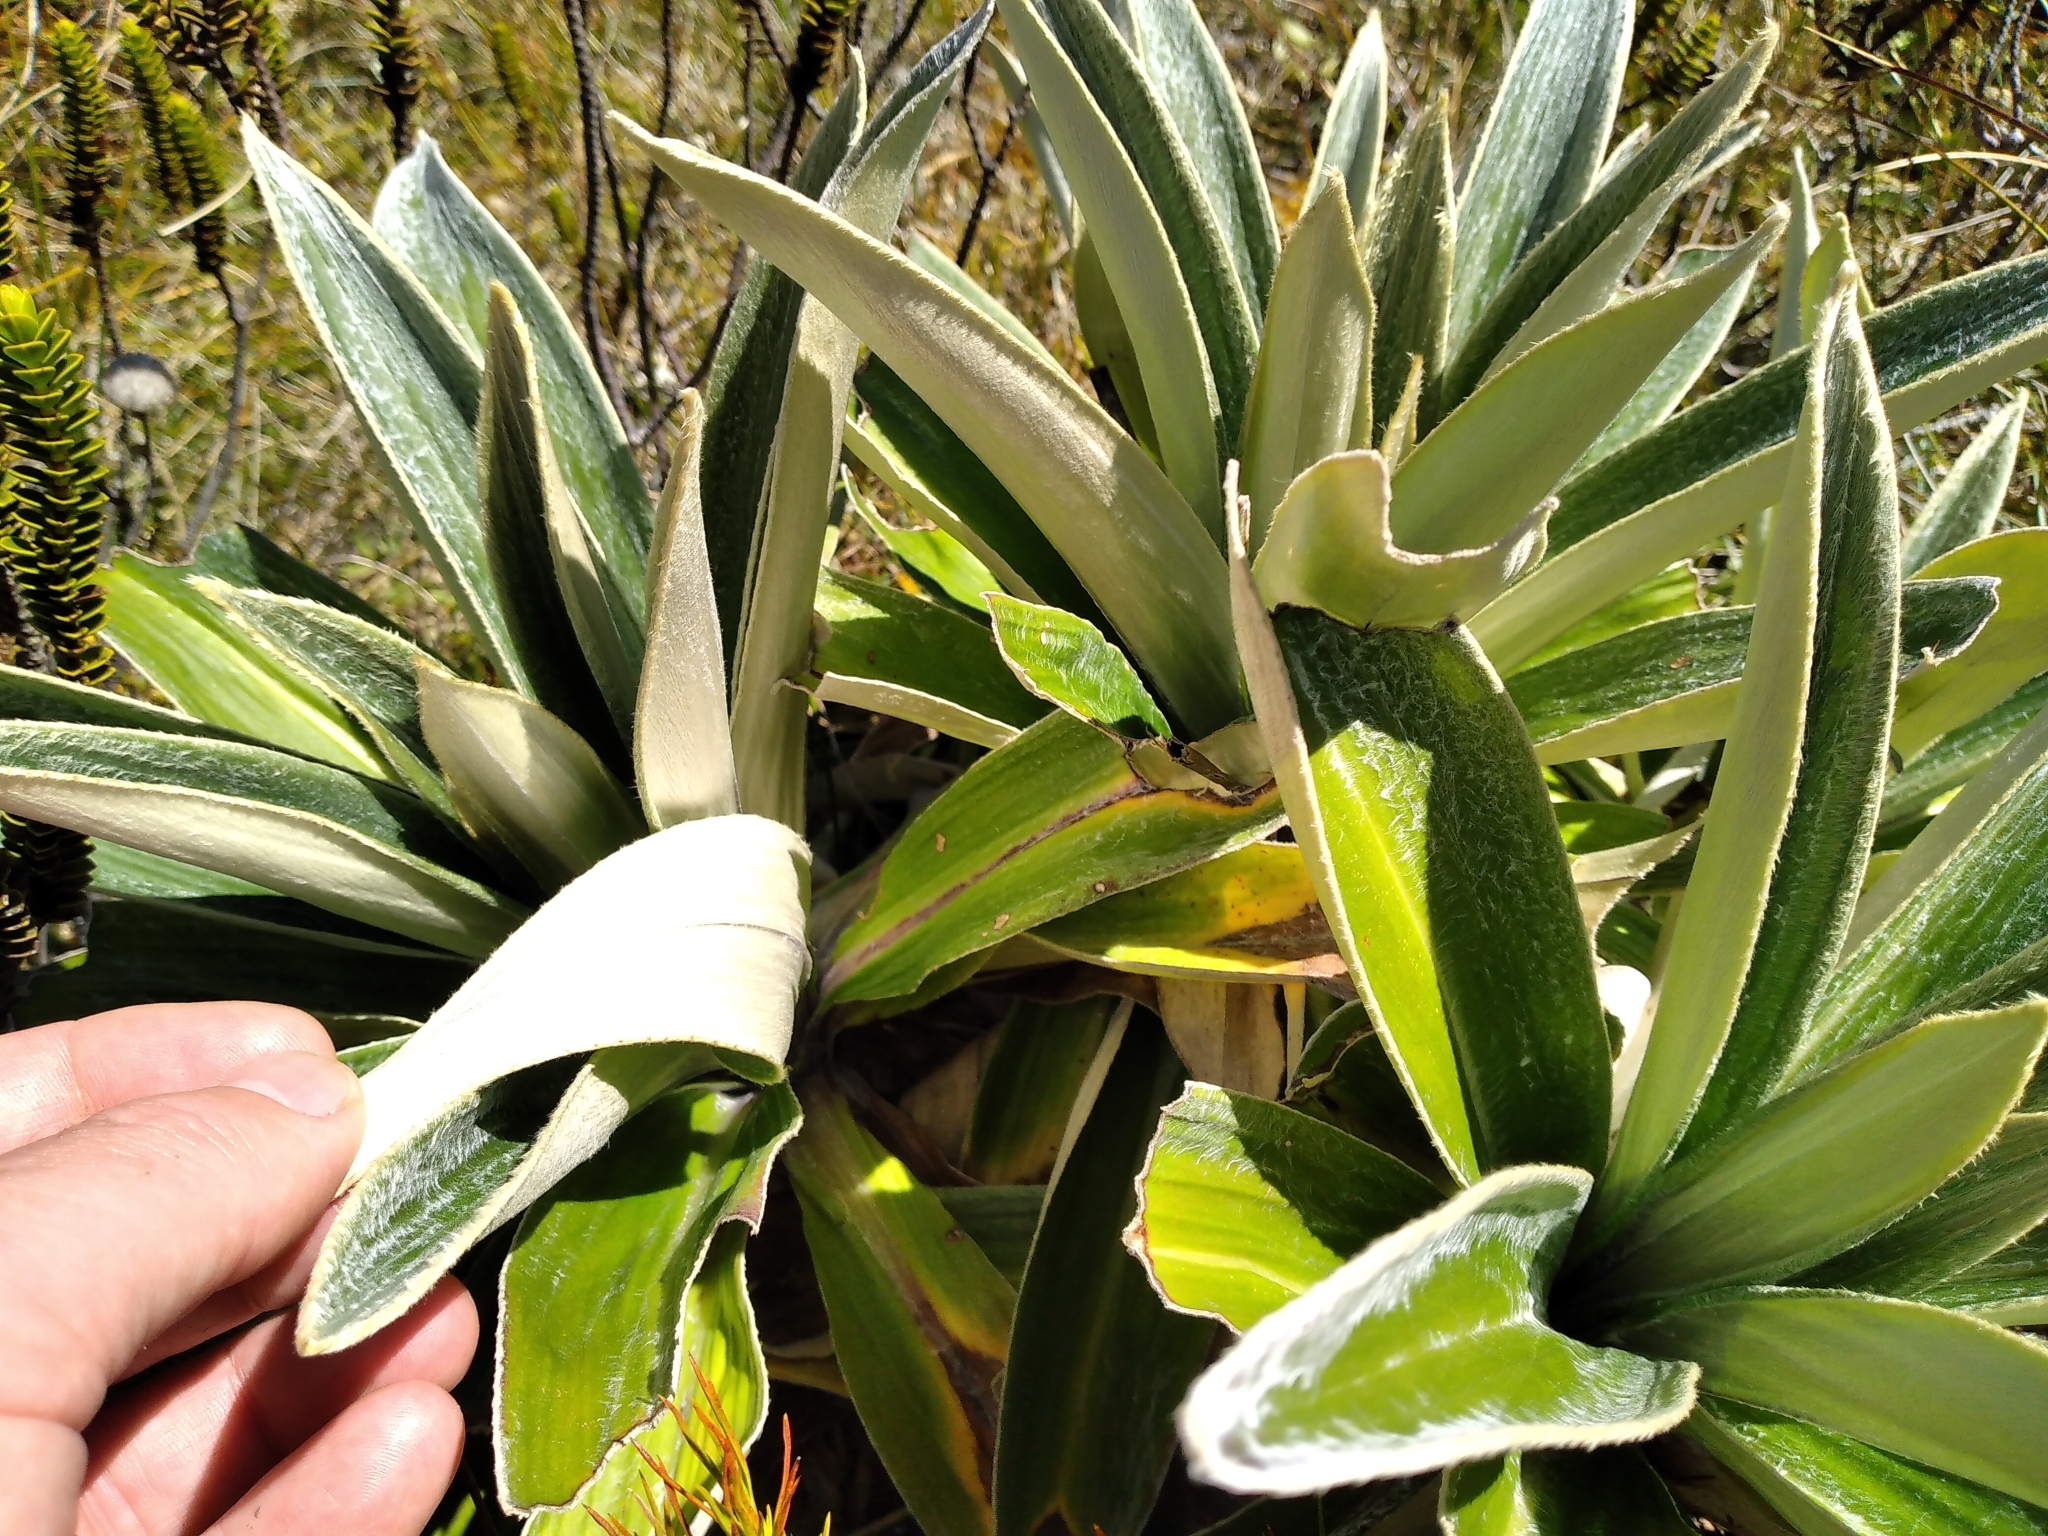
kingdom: Plantae
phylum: Tracheophyta
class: Magnoliopsida
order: Asterales
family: Asteraceae
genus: Celmisia
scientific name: Celmisia verbascifolia
